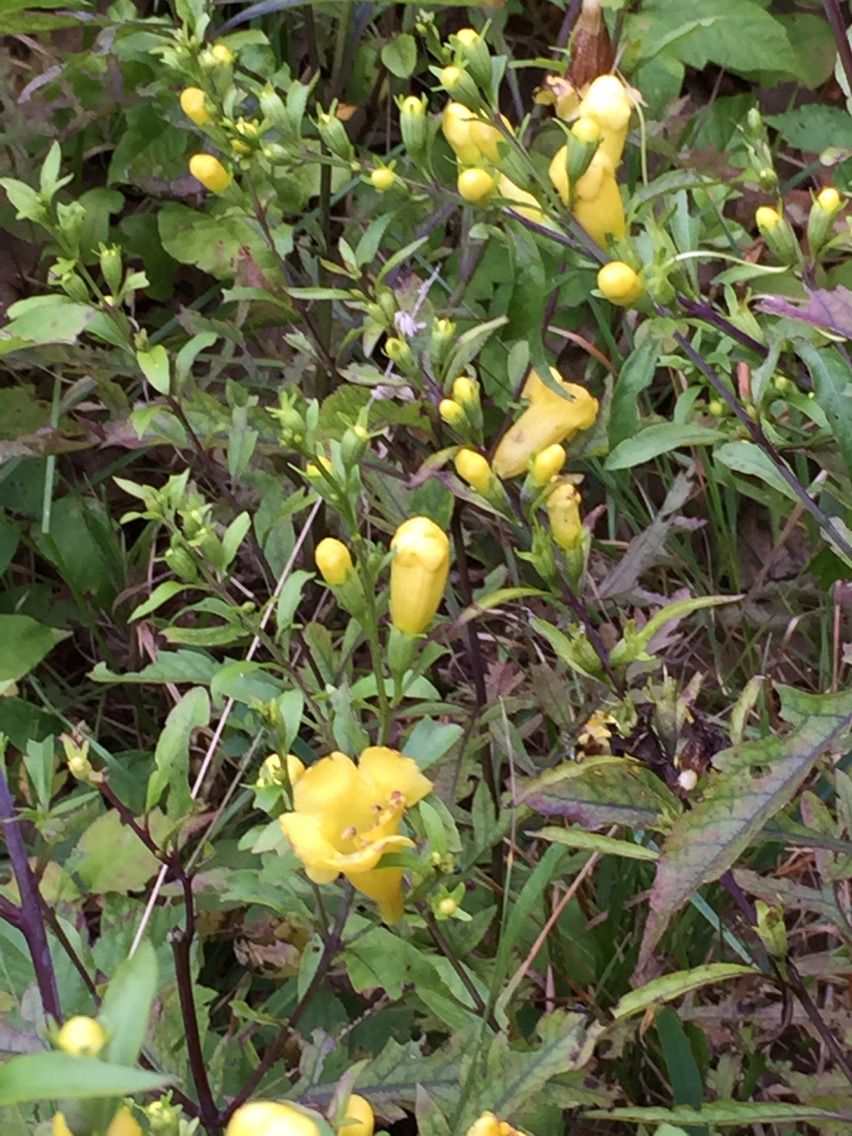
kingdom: Plantae
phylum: Tracheophyta
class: Magnoliopsida
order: Lamiales
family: Orobanchaceae
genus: Aureolaria
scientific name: Aureolaria flava
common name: Smooth false foxglove
